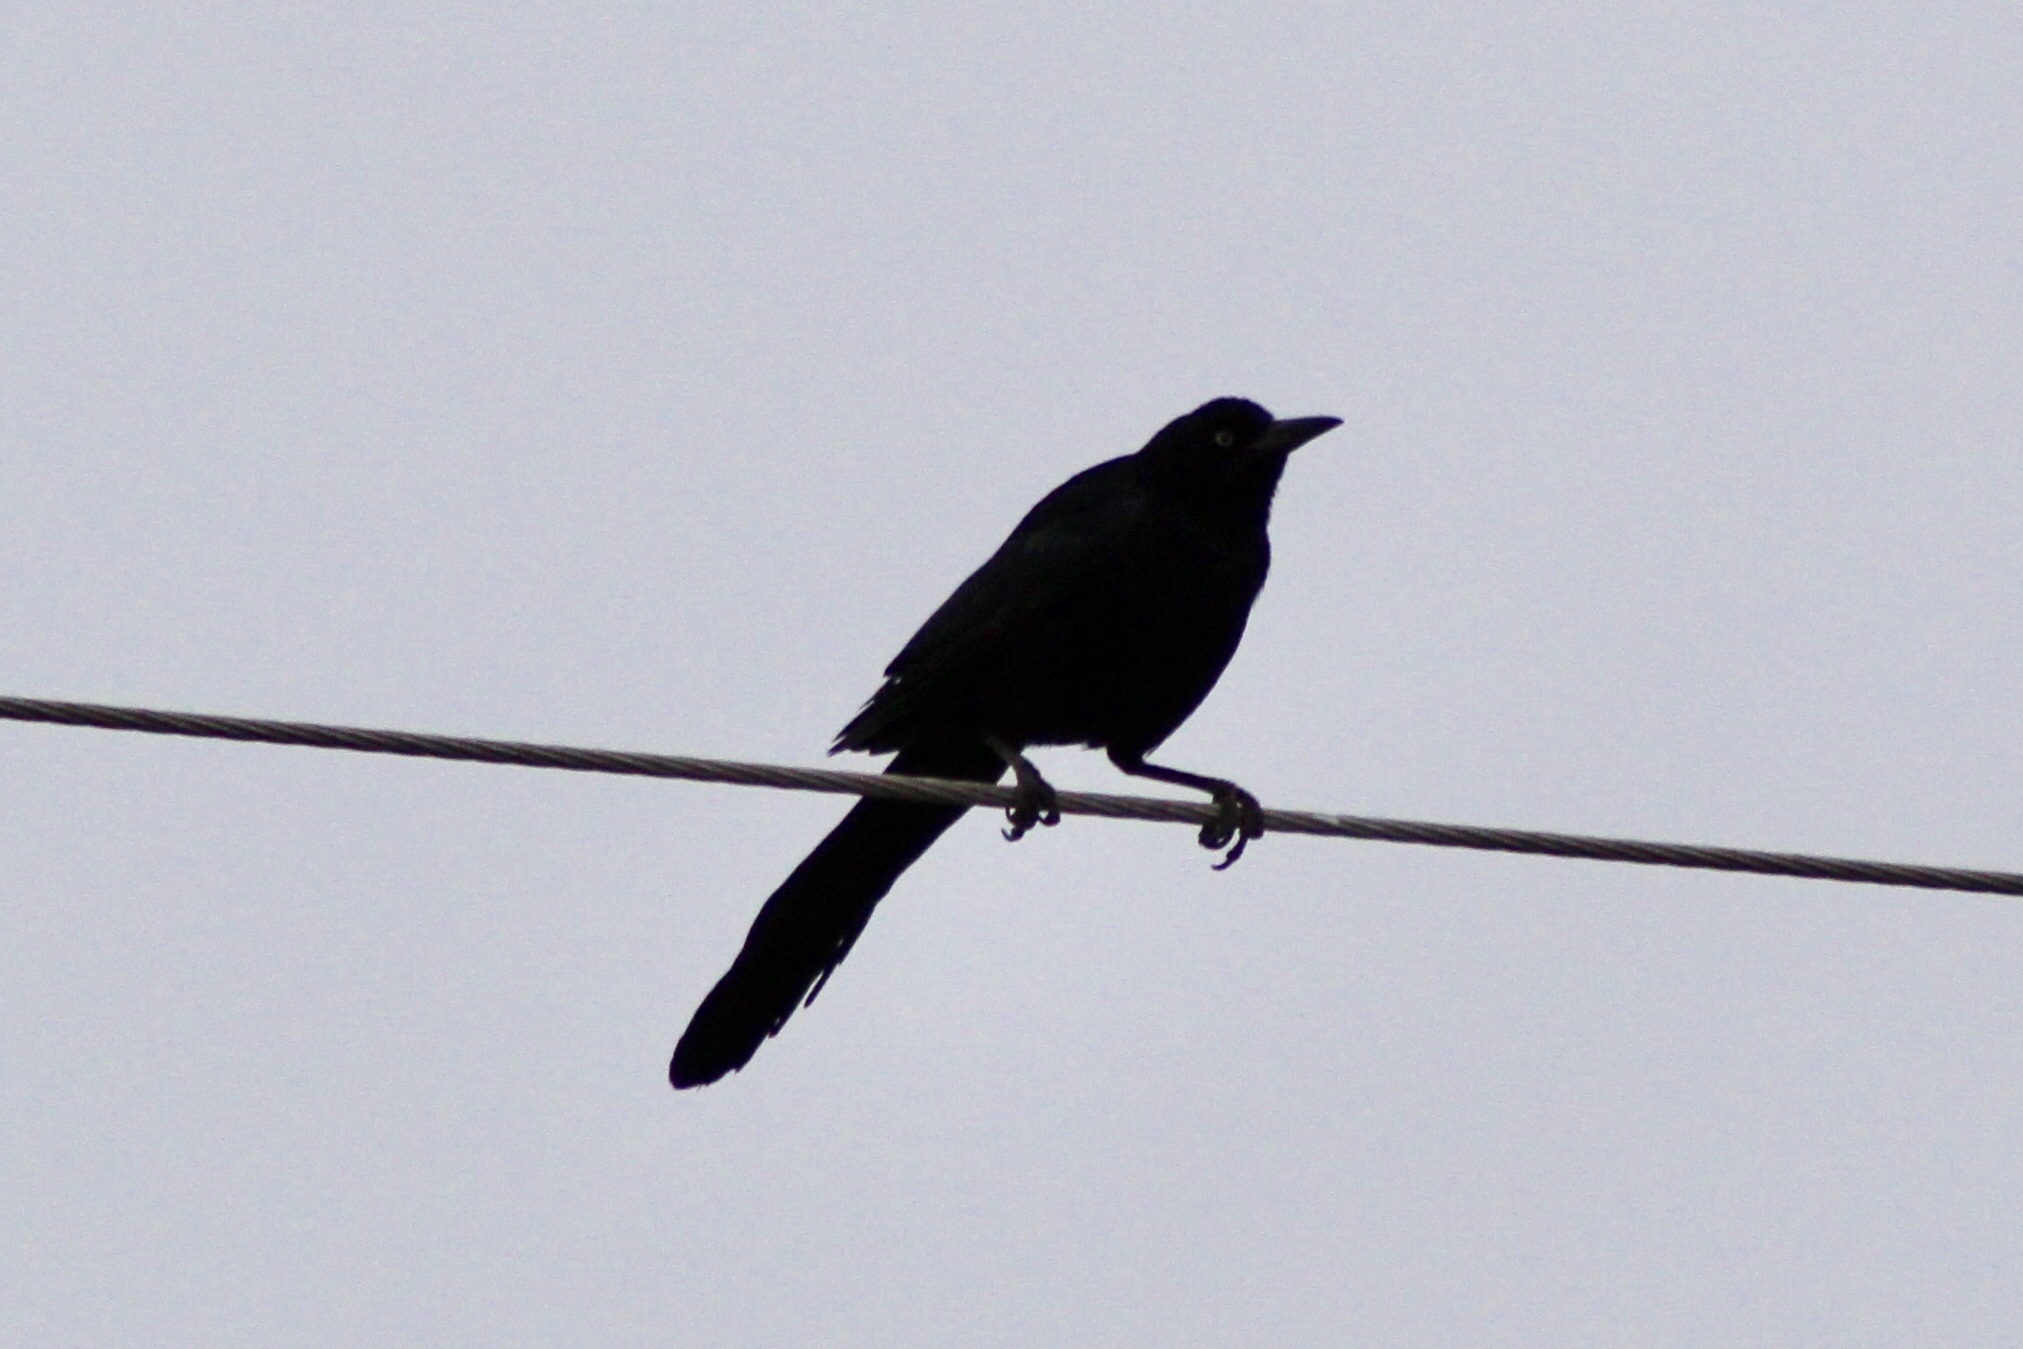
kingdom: Animalia
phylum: Chordata
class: Aves
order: Passeriformes
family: Icteridae
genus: Quiscalus
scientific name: Quiscalus mexicanus
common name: Great-tailed grackle
